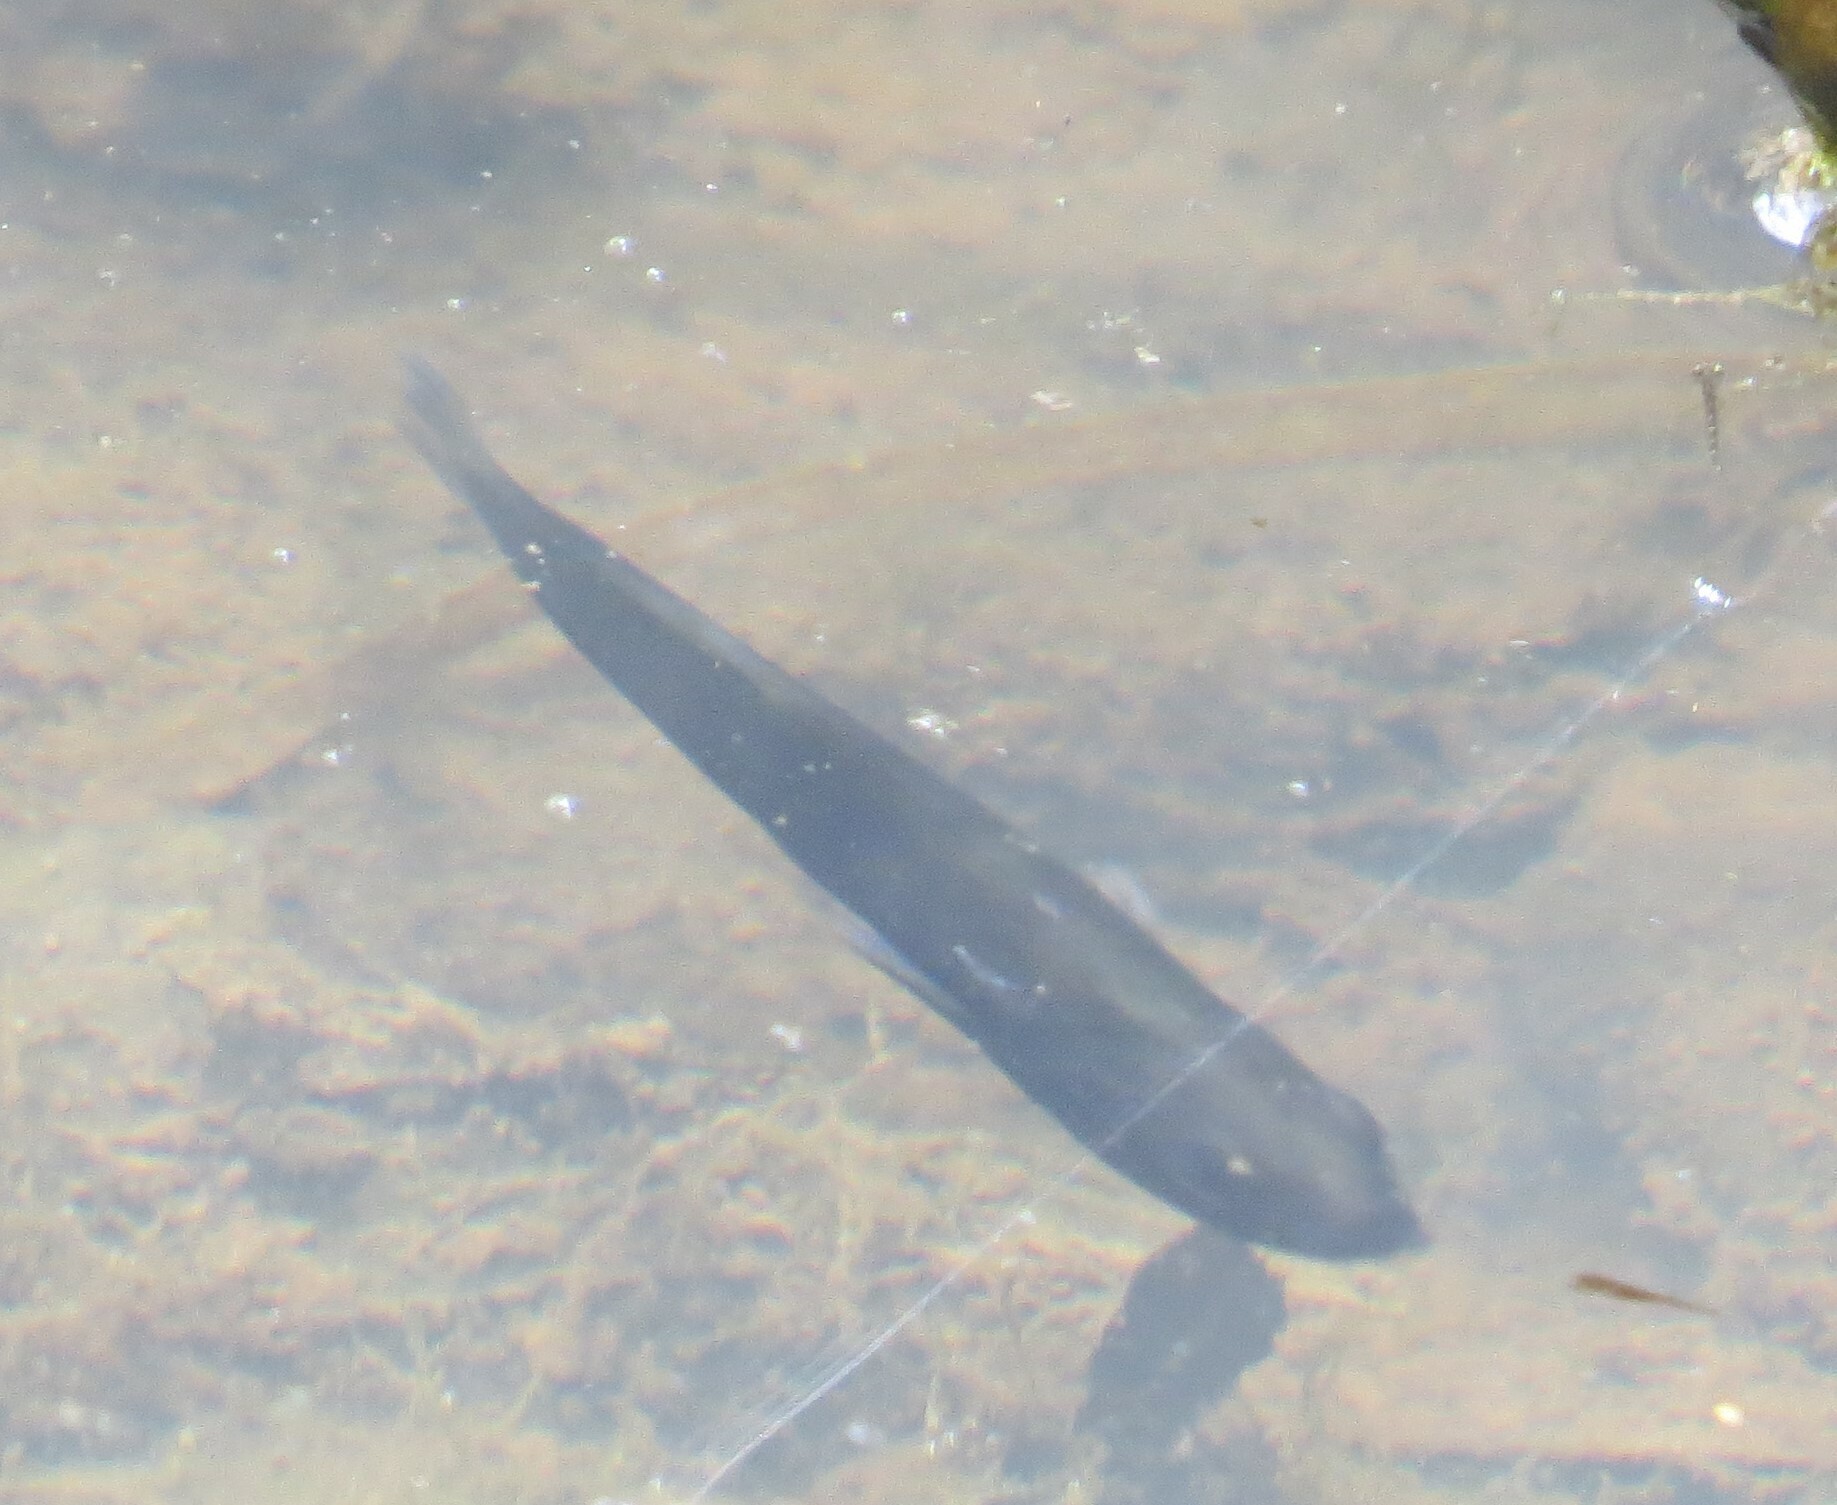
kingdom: Animalia
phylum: Chordata
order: Gasterosteiformes
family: Gasterosteidae
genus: Culaea
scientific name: Culaea inconstans
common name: Brook stickleback
